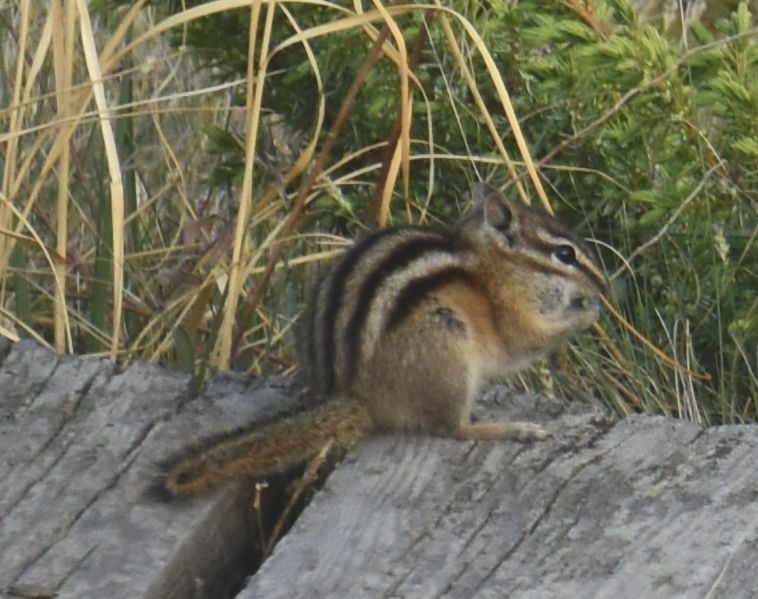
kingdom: Animalia
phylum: Chordata
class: Mammalia
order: Rodentia
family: Sciuridae
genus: Tamias
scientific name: Tamias minimus
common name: Least chipmunk
